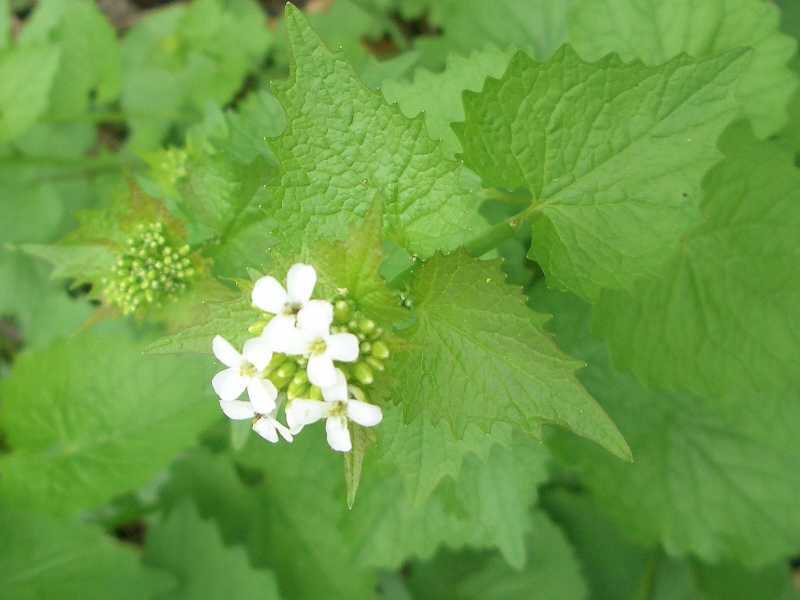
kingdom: Plantae
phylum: Tracheophyta
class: Magnoliopsida
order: Brassicales
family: Brassicaceae
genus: Alliaria
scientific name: Alliaria petiolata
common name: Garlic mustard
